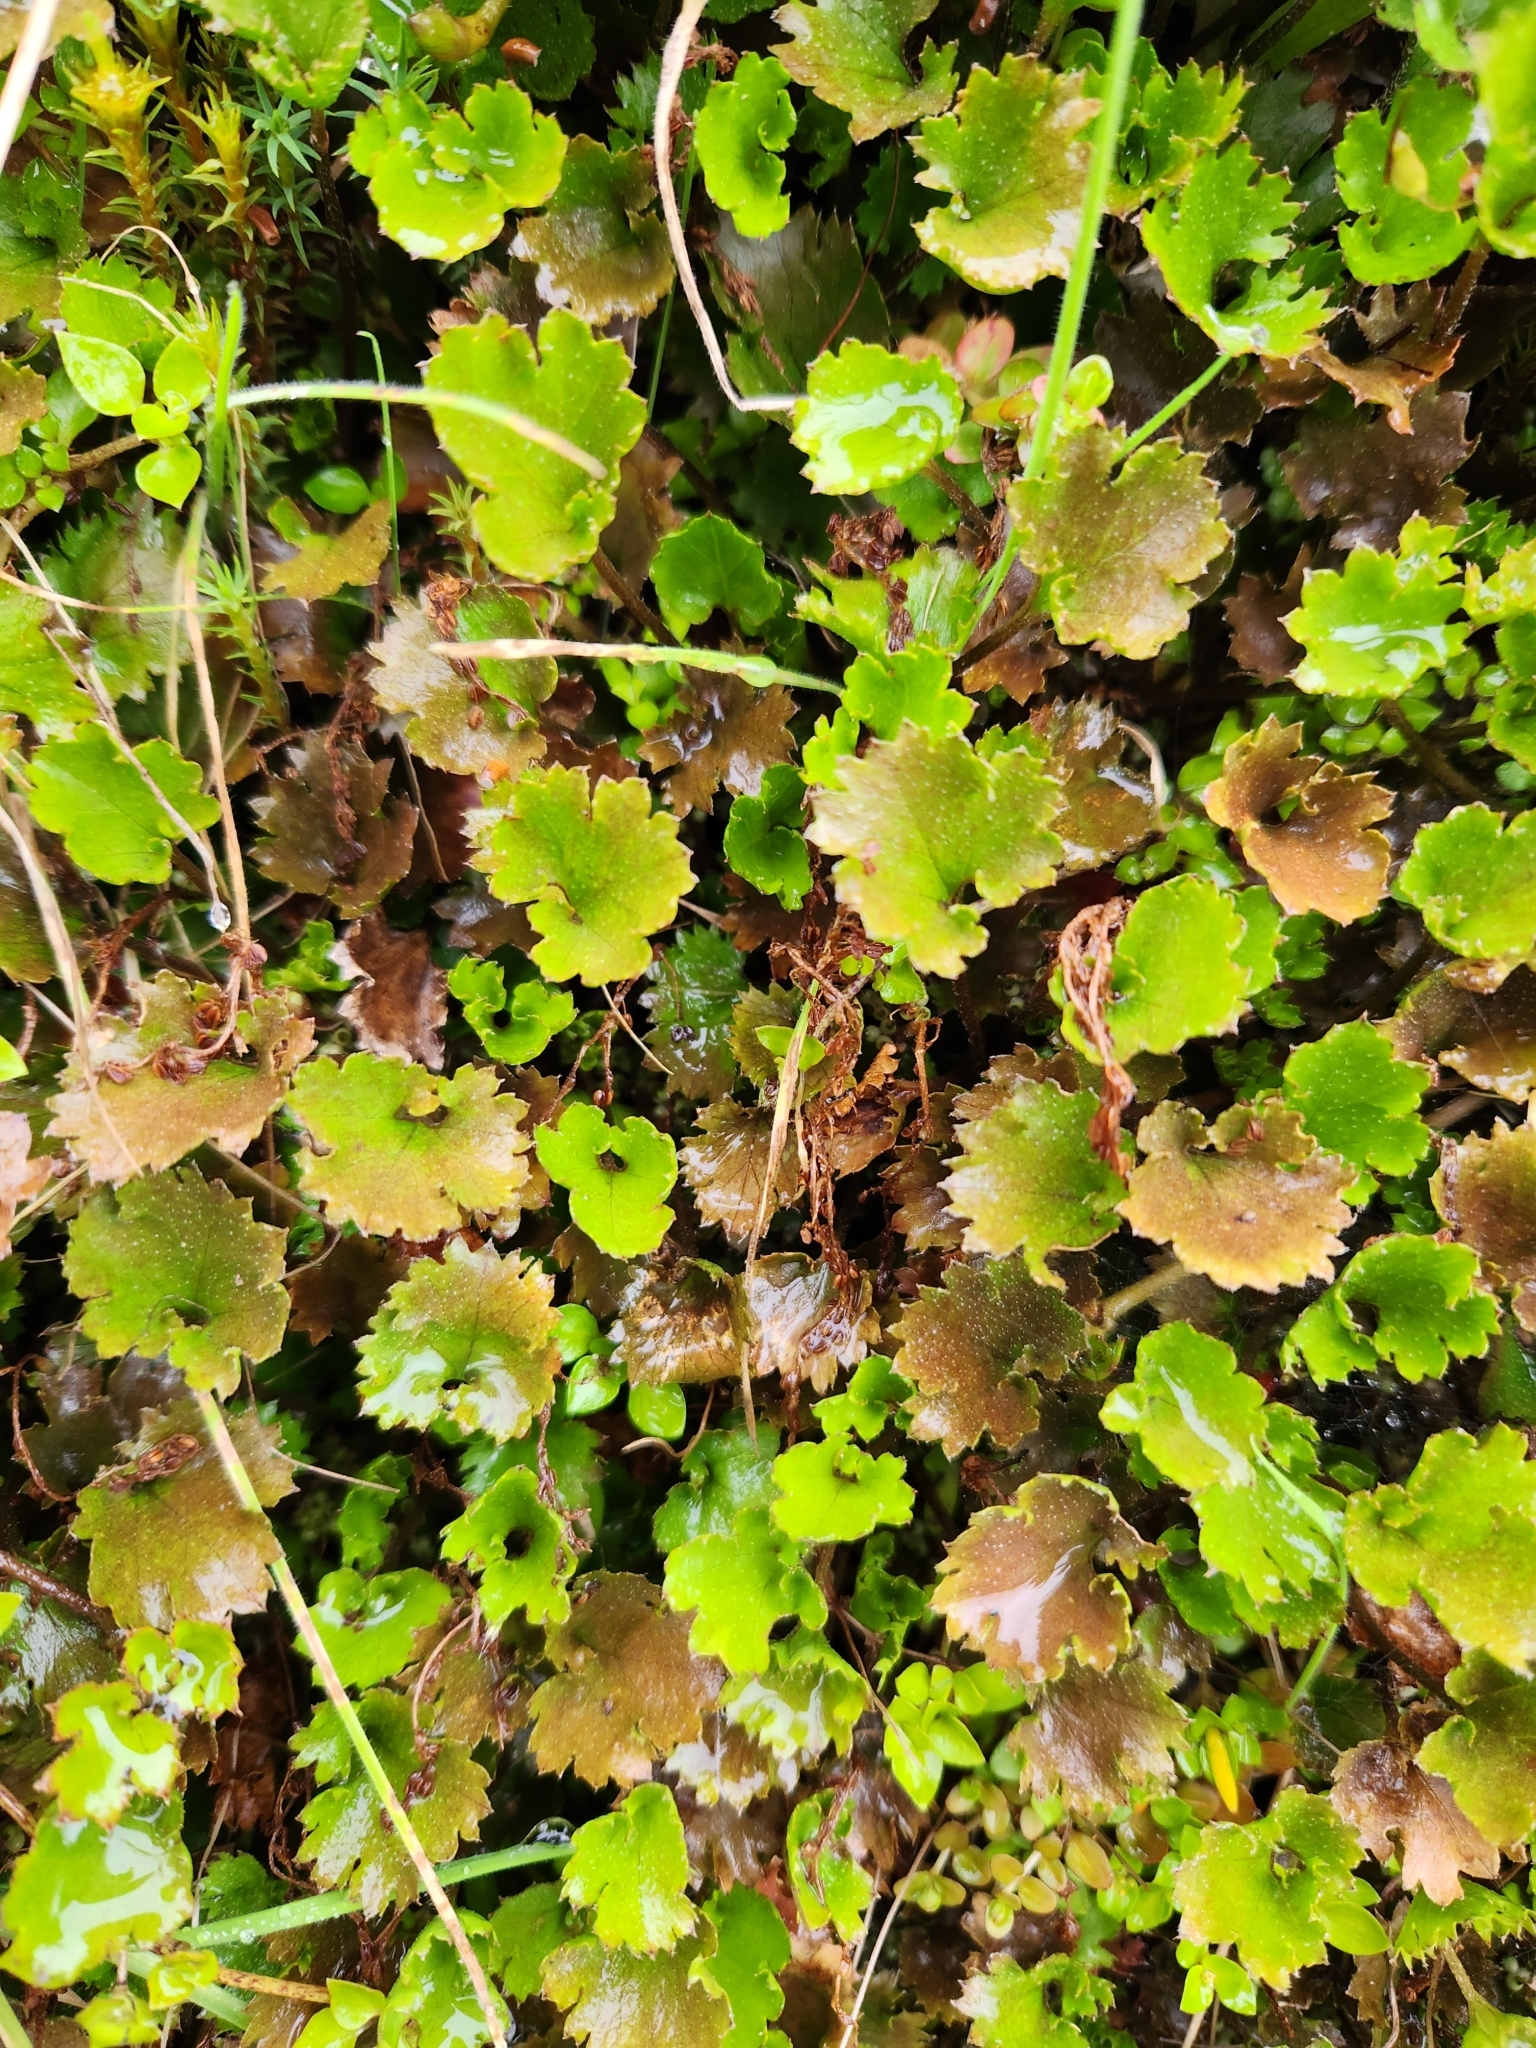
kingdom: Plantae
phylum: Tracheophyta
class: Magnoliopsida
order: Gunnerales
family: Gunneraceae
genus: Gunnera
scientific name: Gunnera monoica
